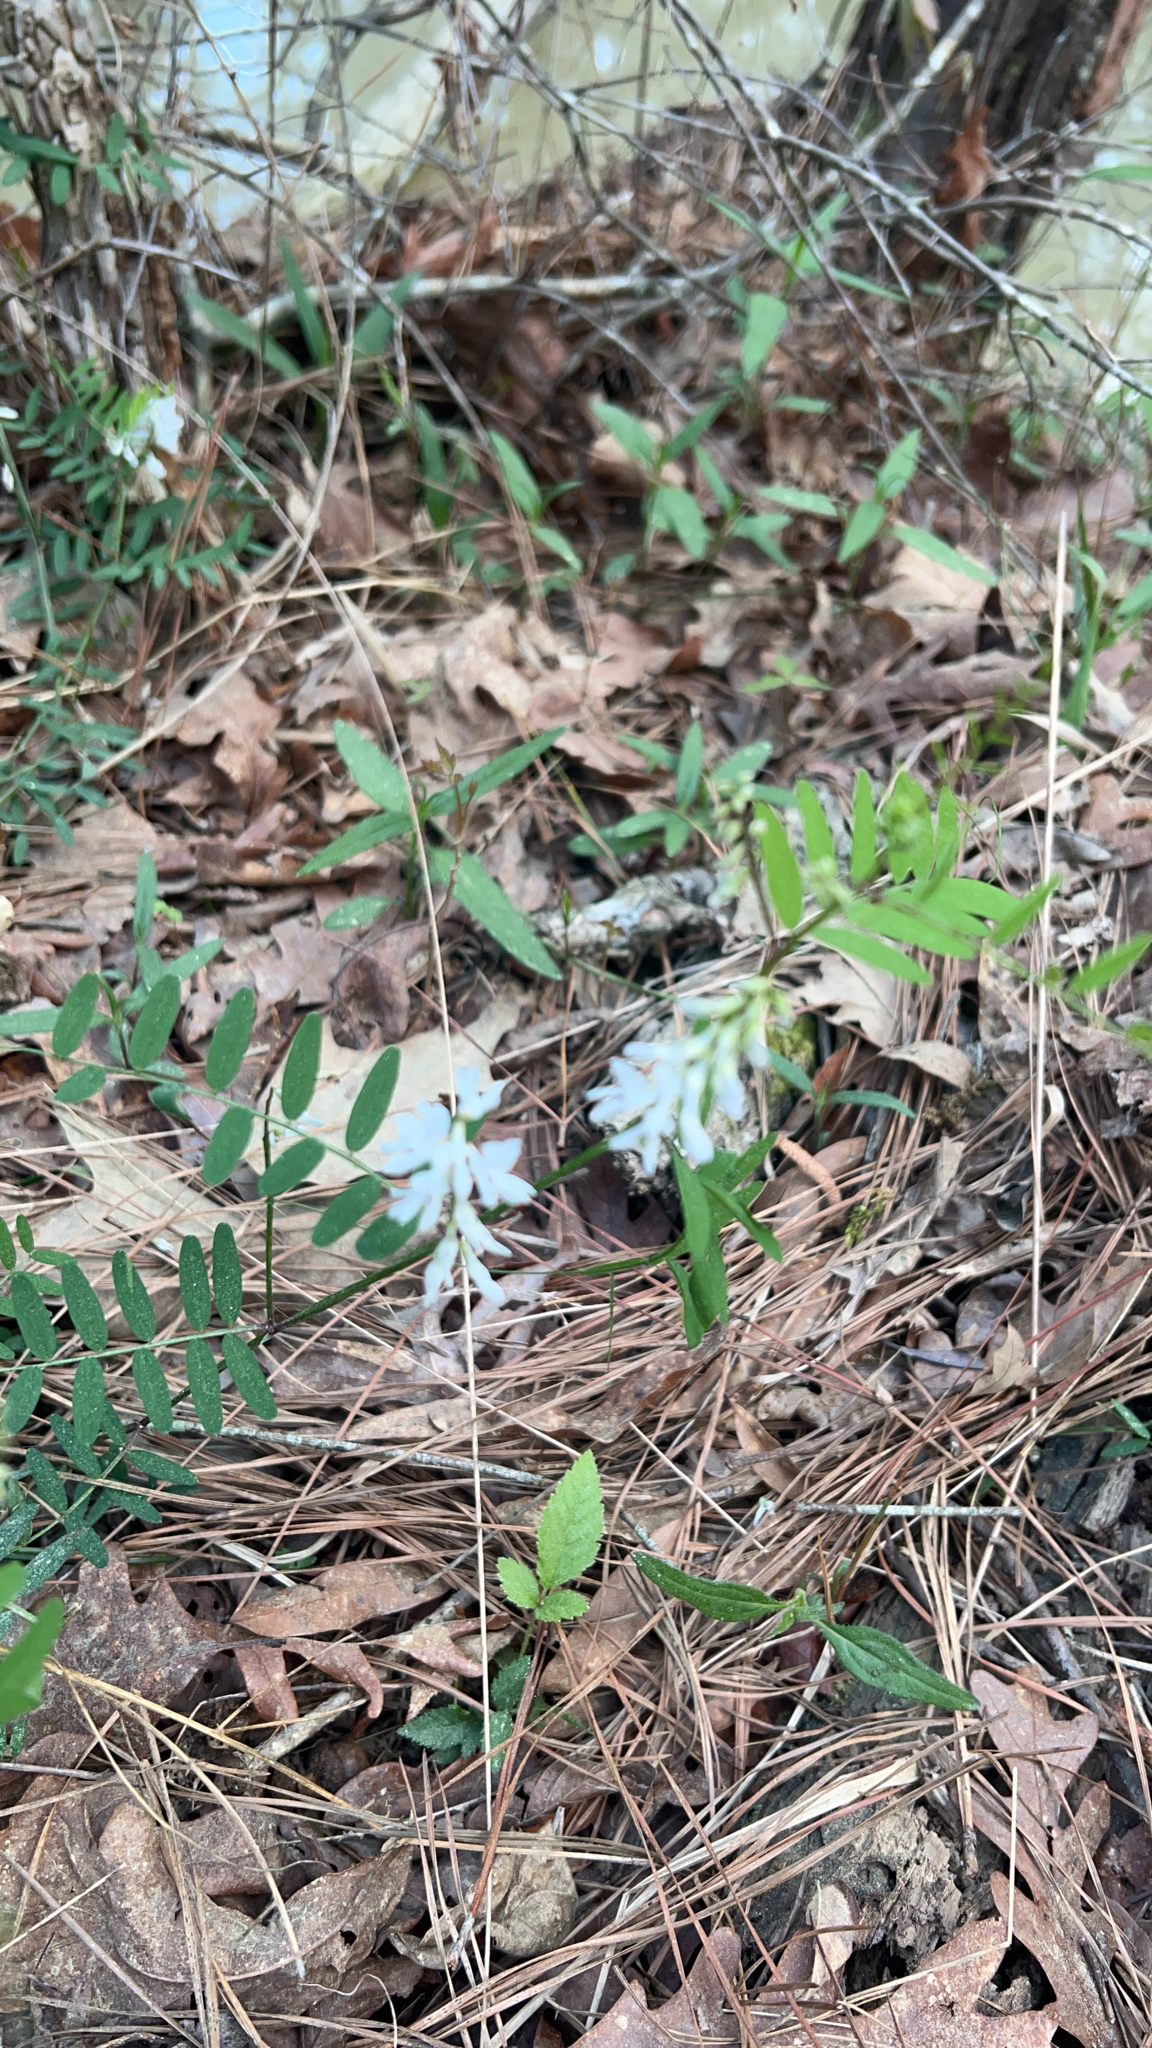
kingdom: Plantae
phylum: Tracheophyta
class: Magnoliopsida
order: Fabales
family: Fabaceae
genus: Vicia
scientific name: Vicia caroliniana
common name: Carolina vetch
